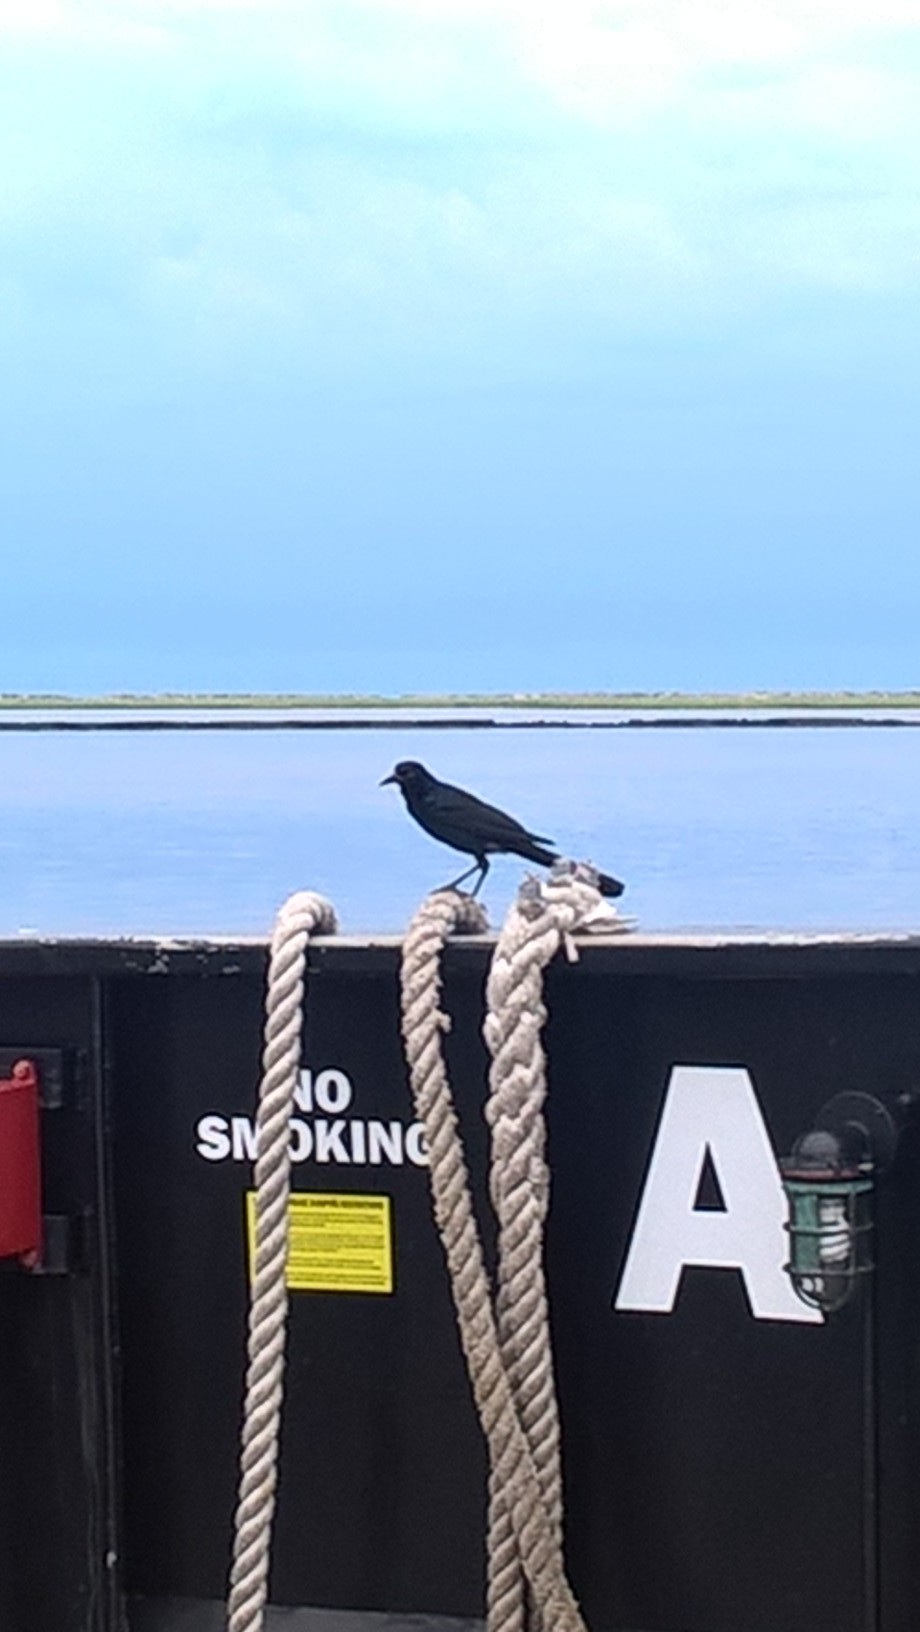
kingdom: Animalia
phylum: Chordata
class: Aves
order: Passeriformes
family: Icteridae
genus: Quiscalus
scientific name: Quiscalus major
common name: Boat-tailed grackle
